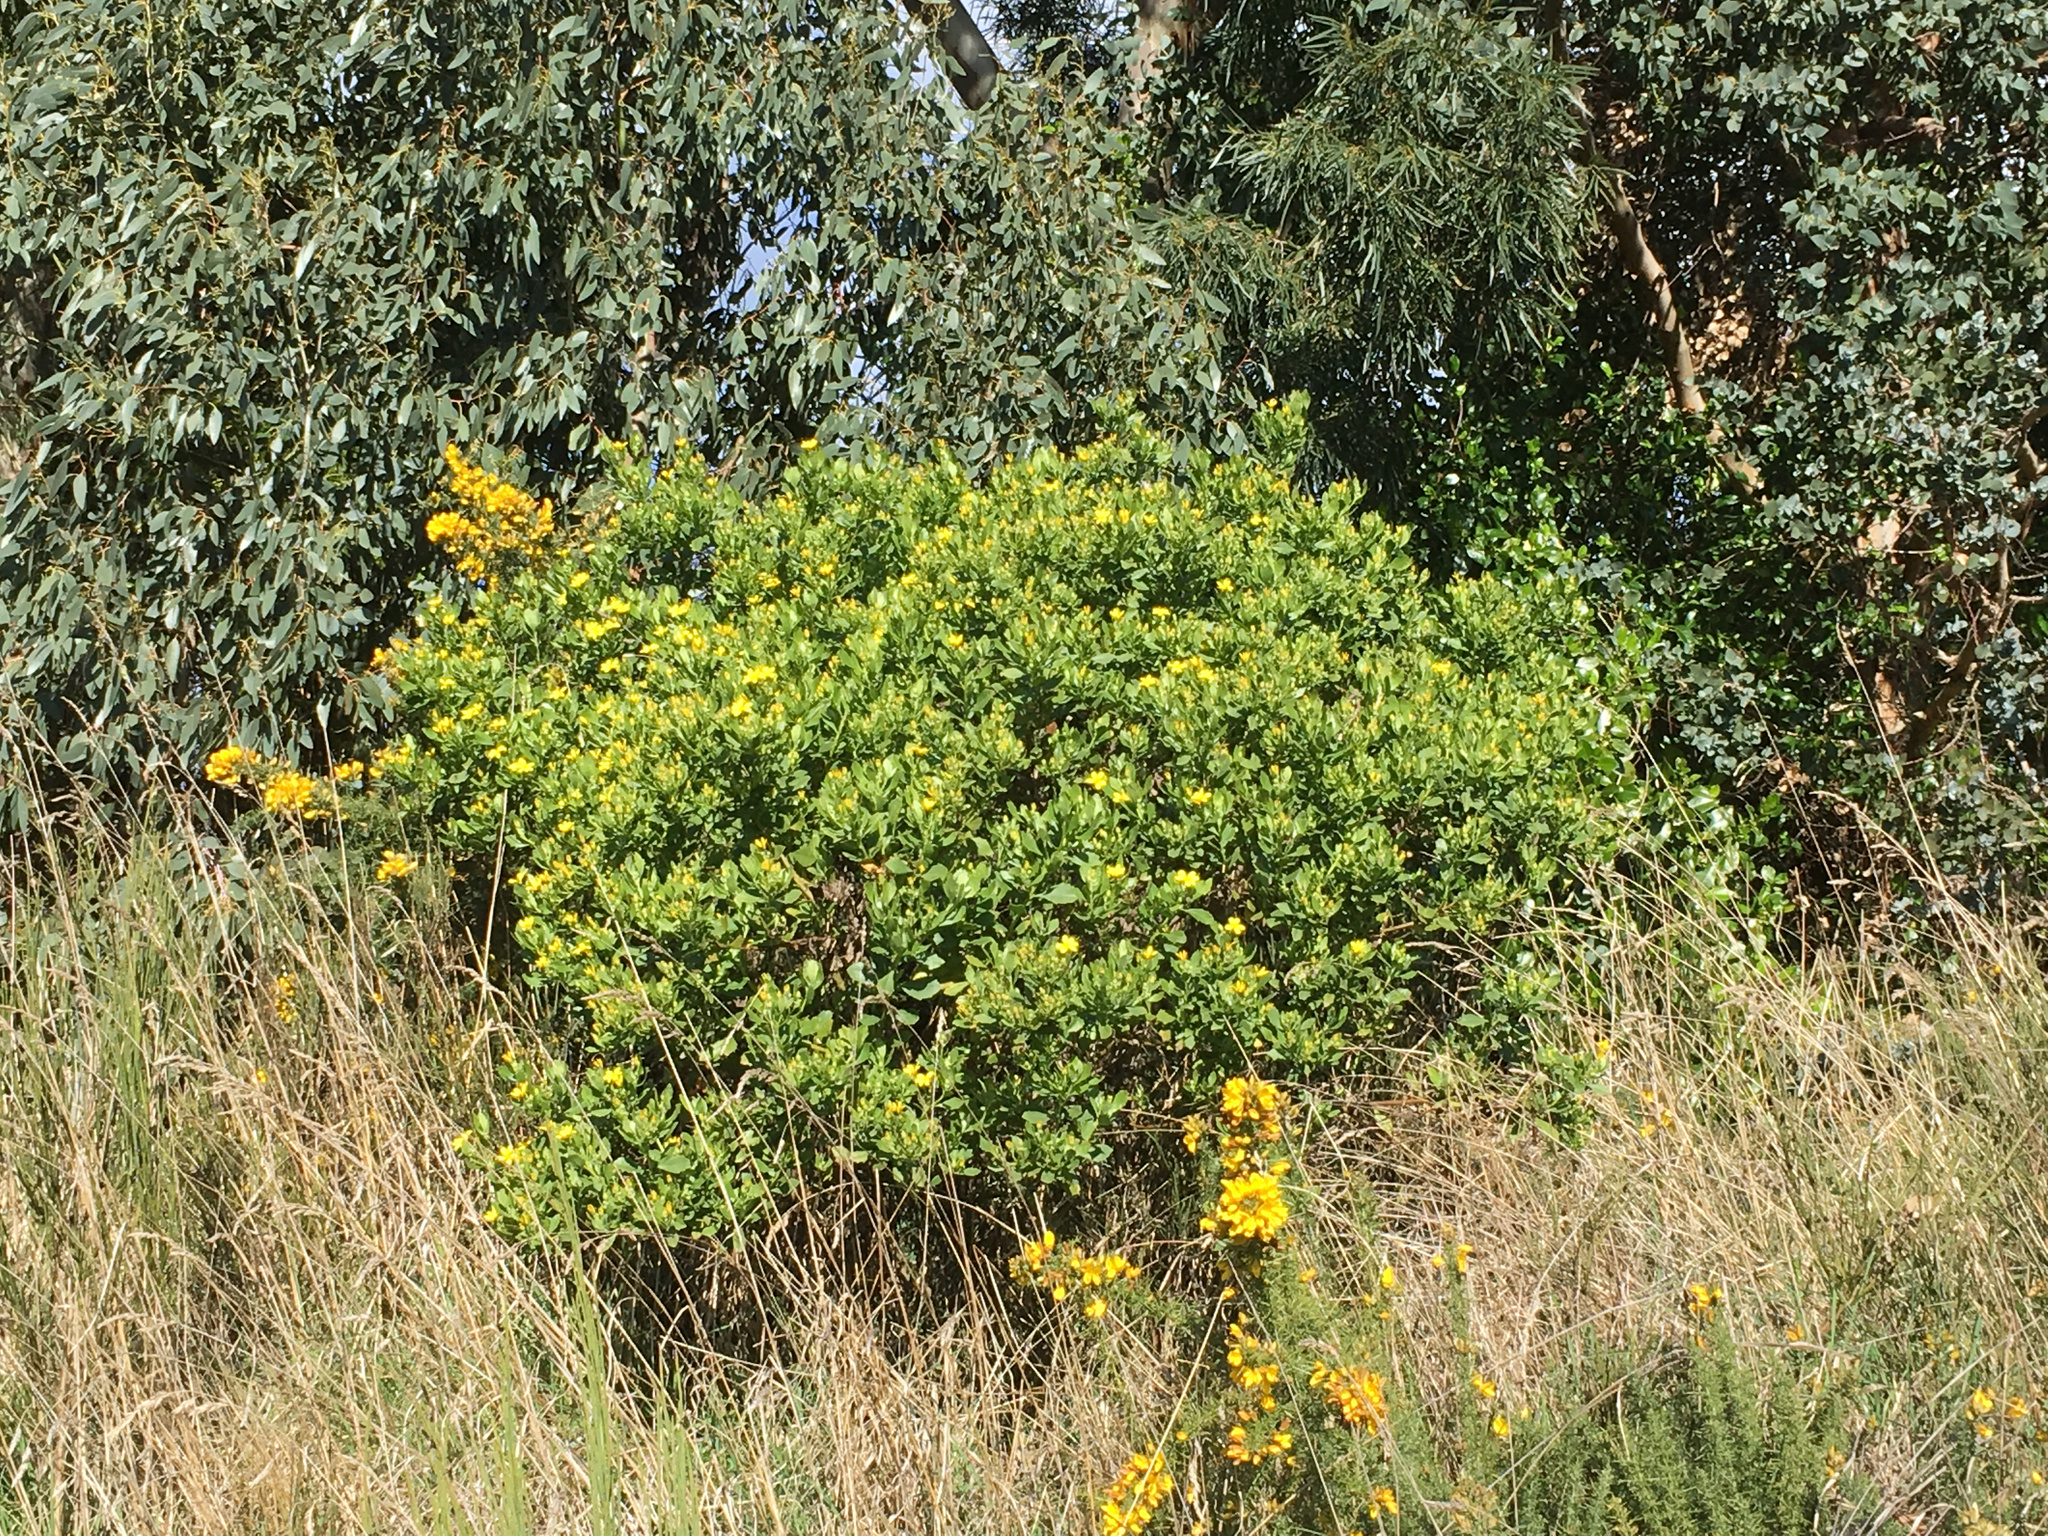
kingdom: Plantae
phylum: Tracheophyta
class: Magnoliopsida
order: Asterales
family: Asteraceae
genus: Osteospermum
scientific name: Osteospermum moniliferum
